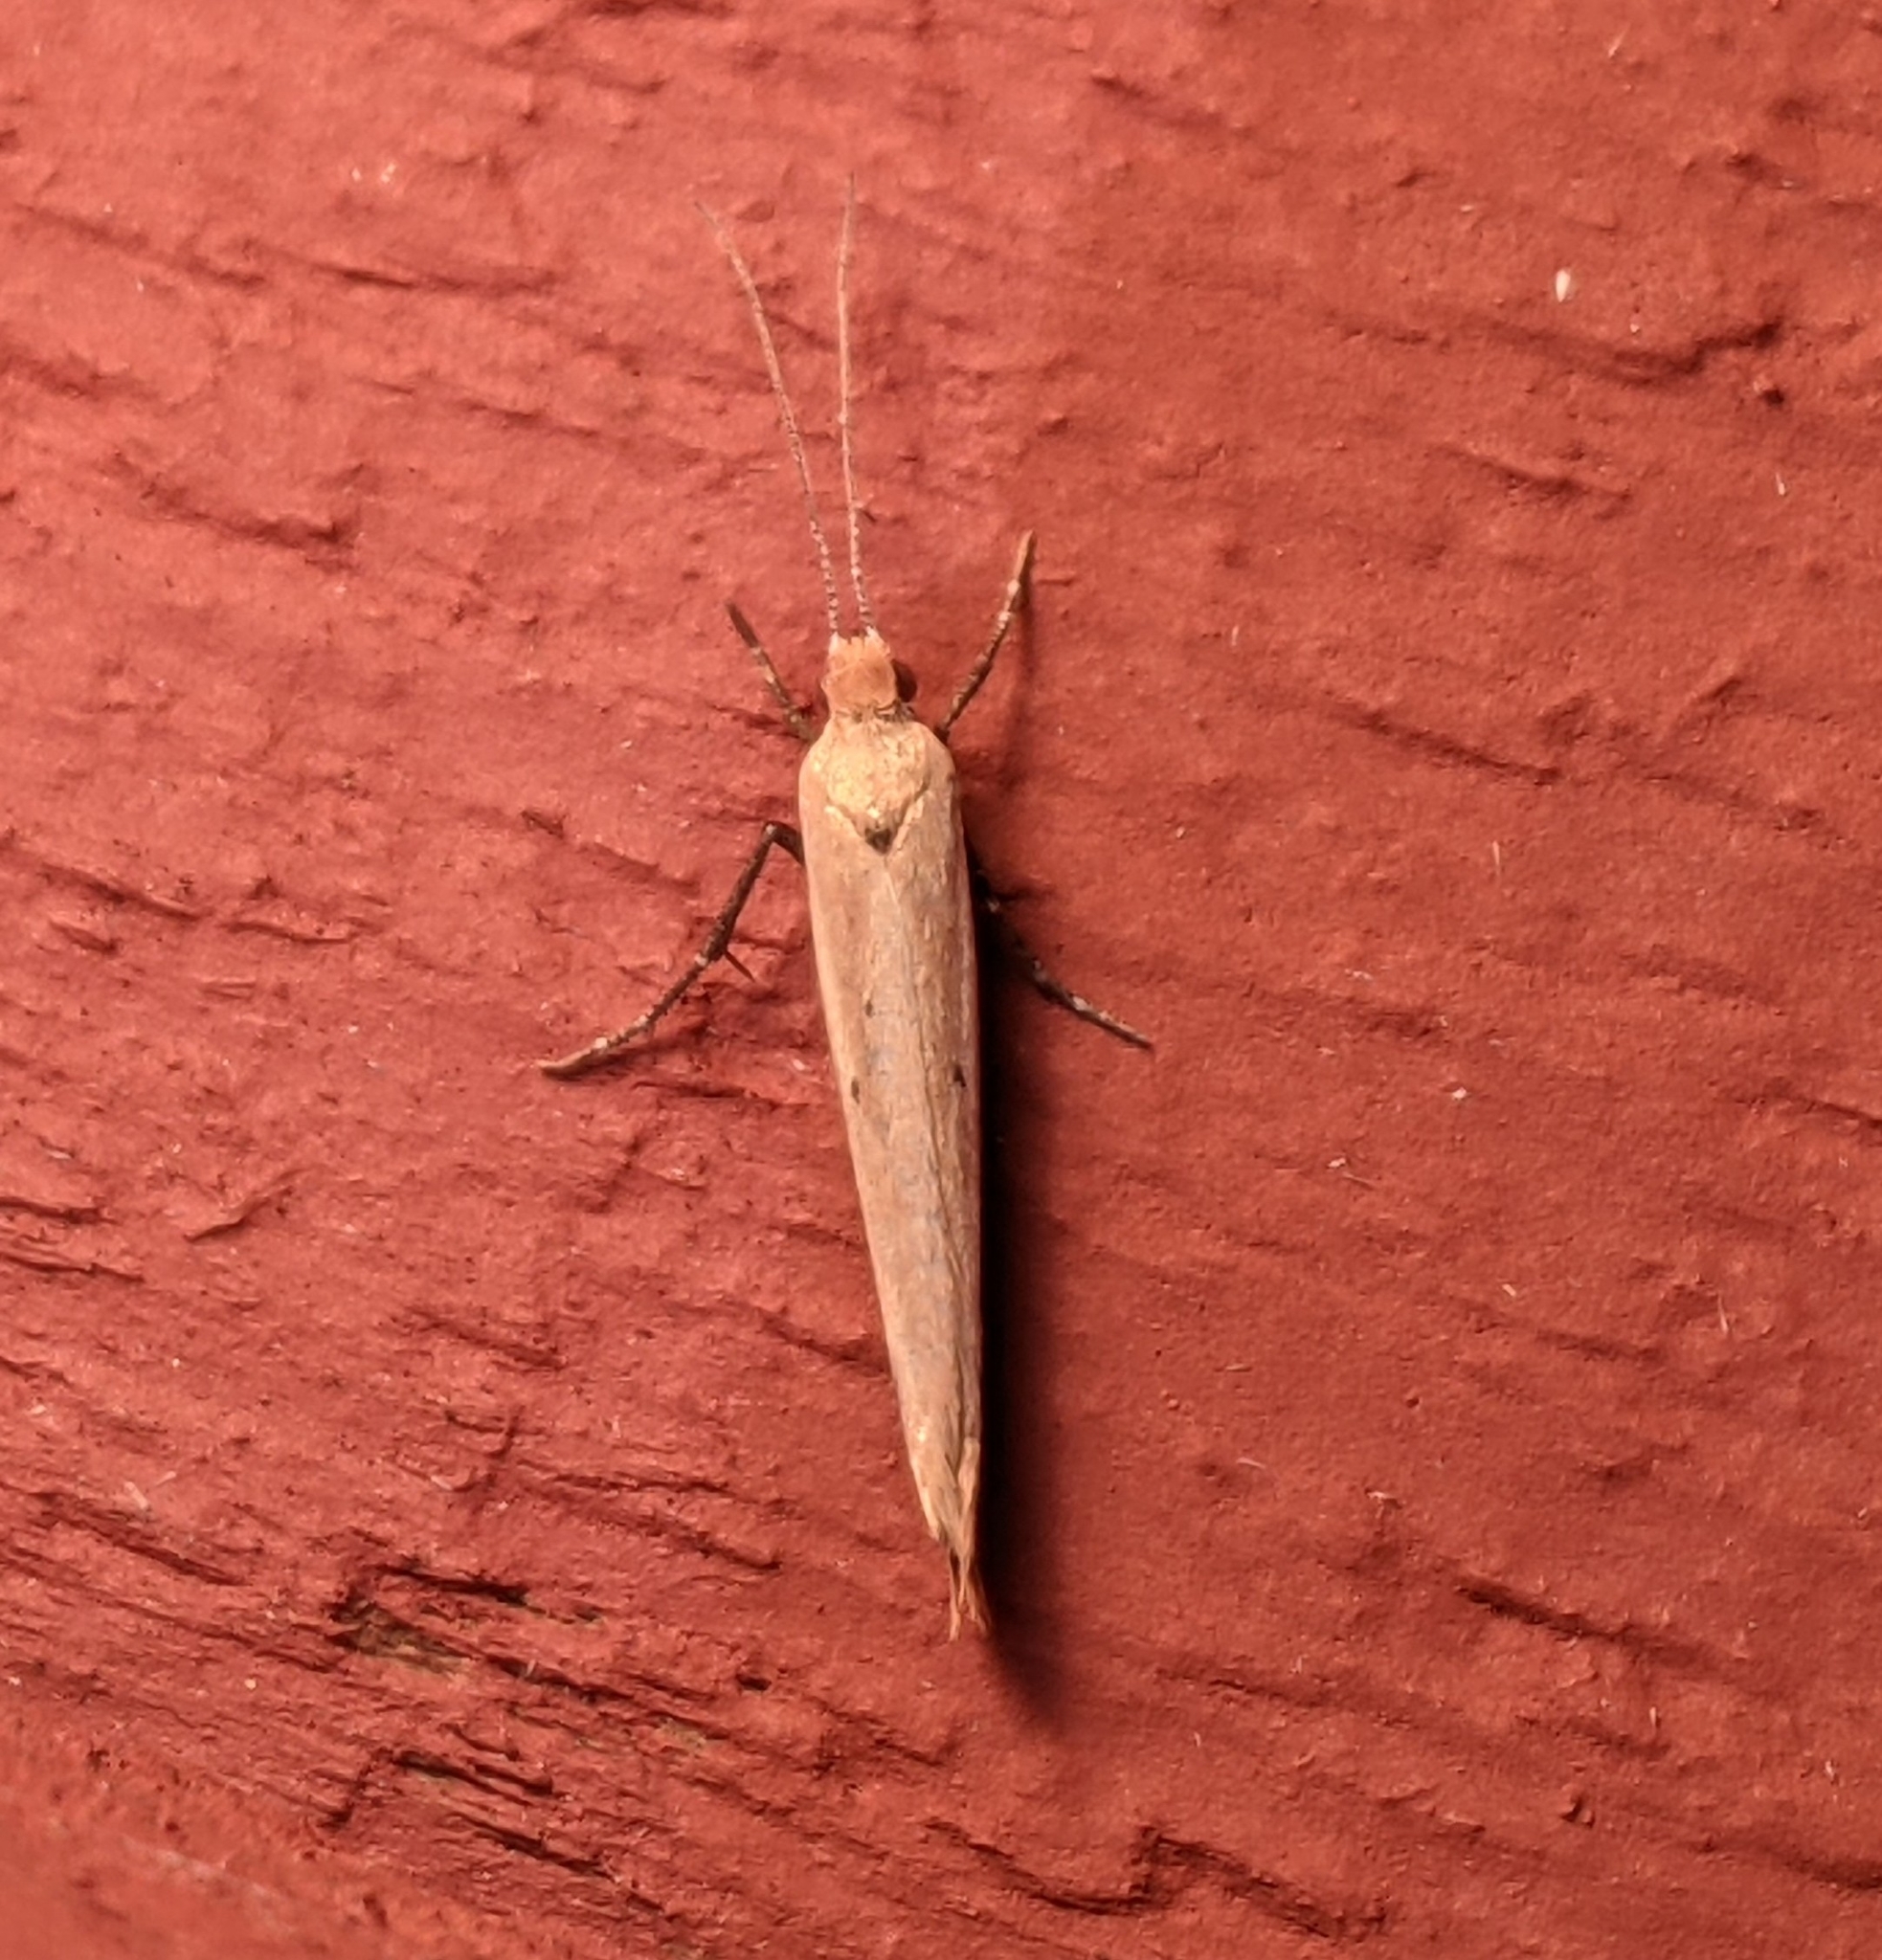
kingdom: Animalia
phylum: Arthropoda
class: Insecta
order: Lepidoptera
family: Ypsolophidae
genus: Ypsolopha
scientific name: Ypsolopha
